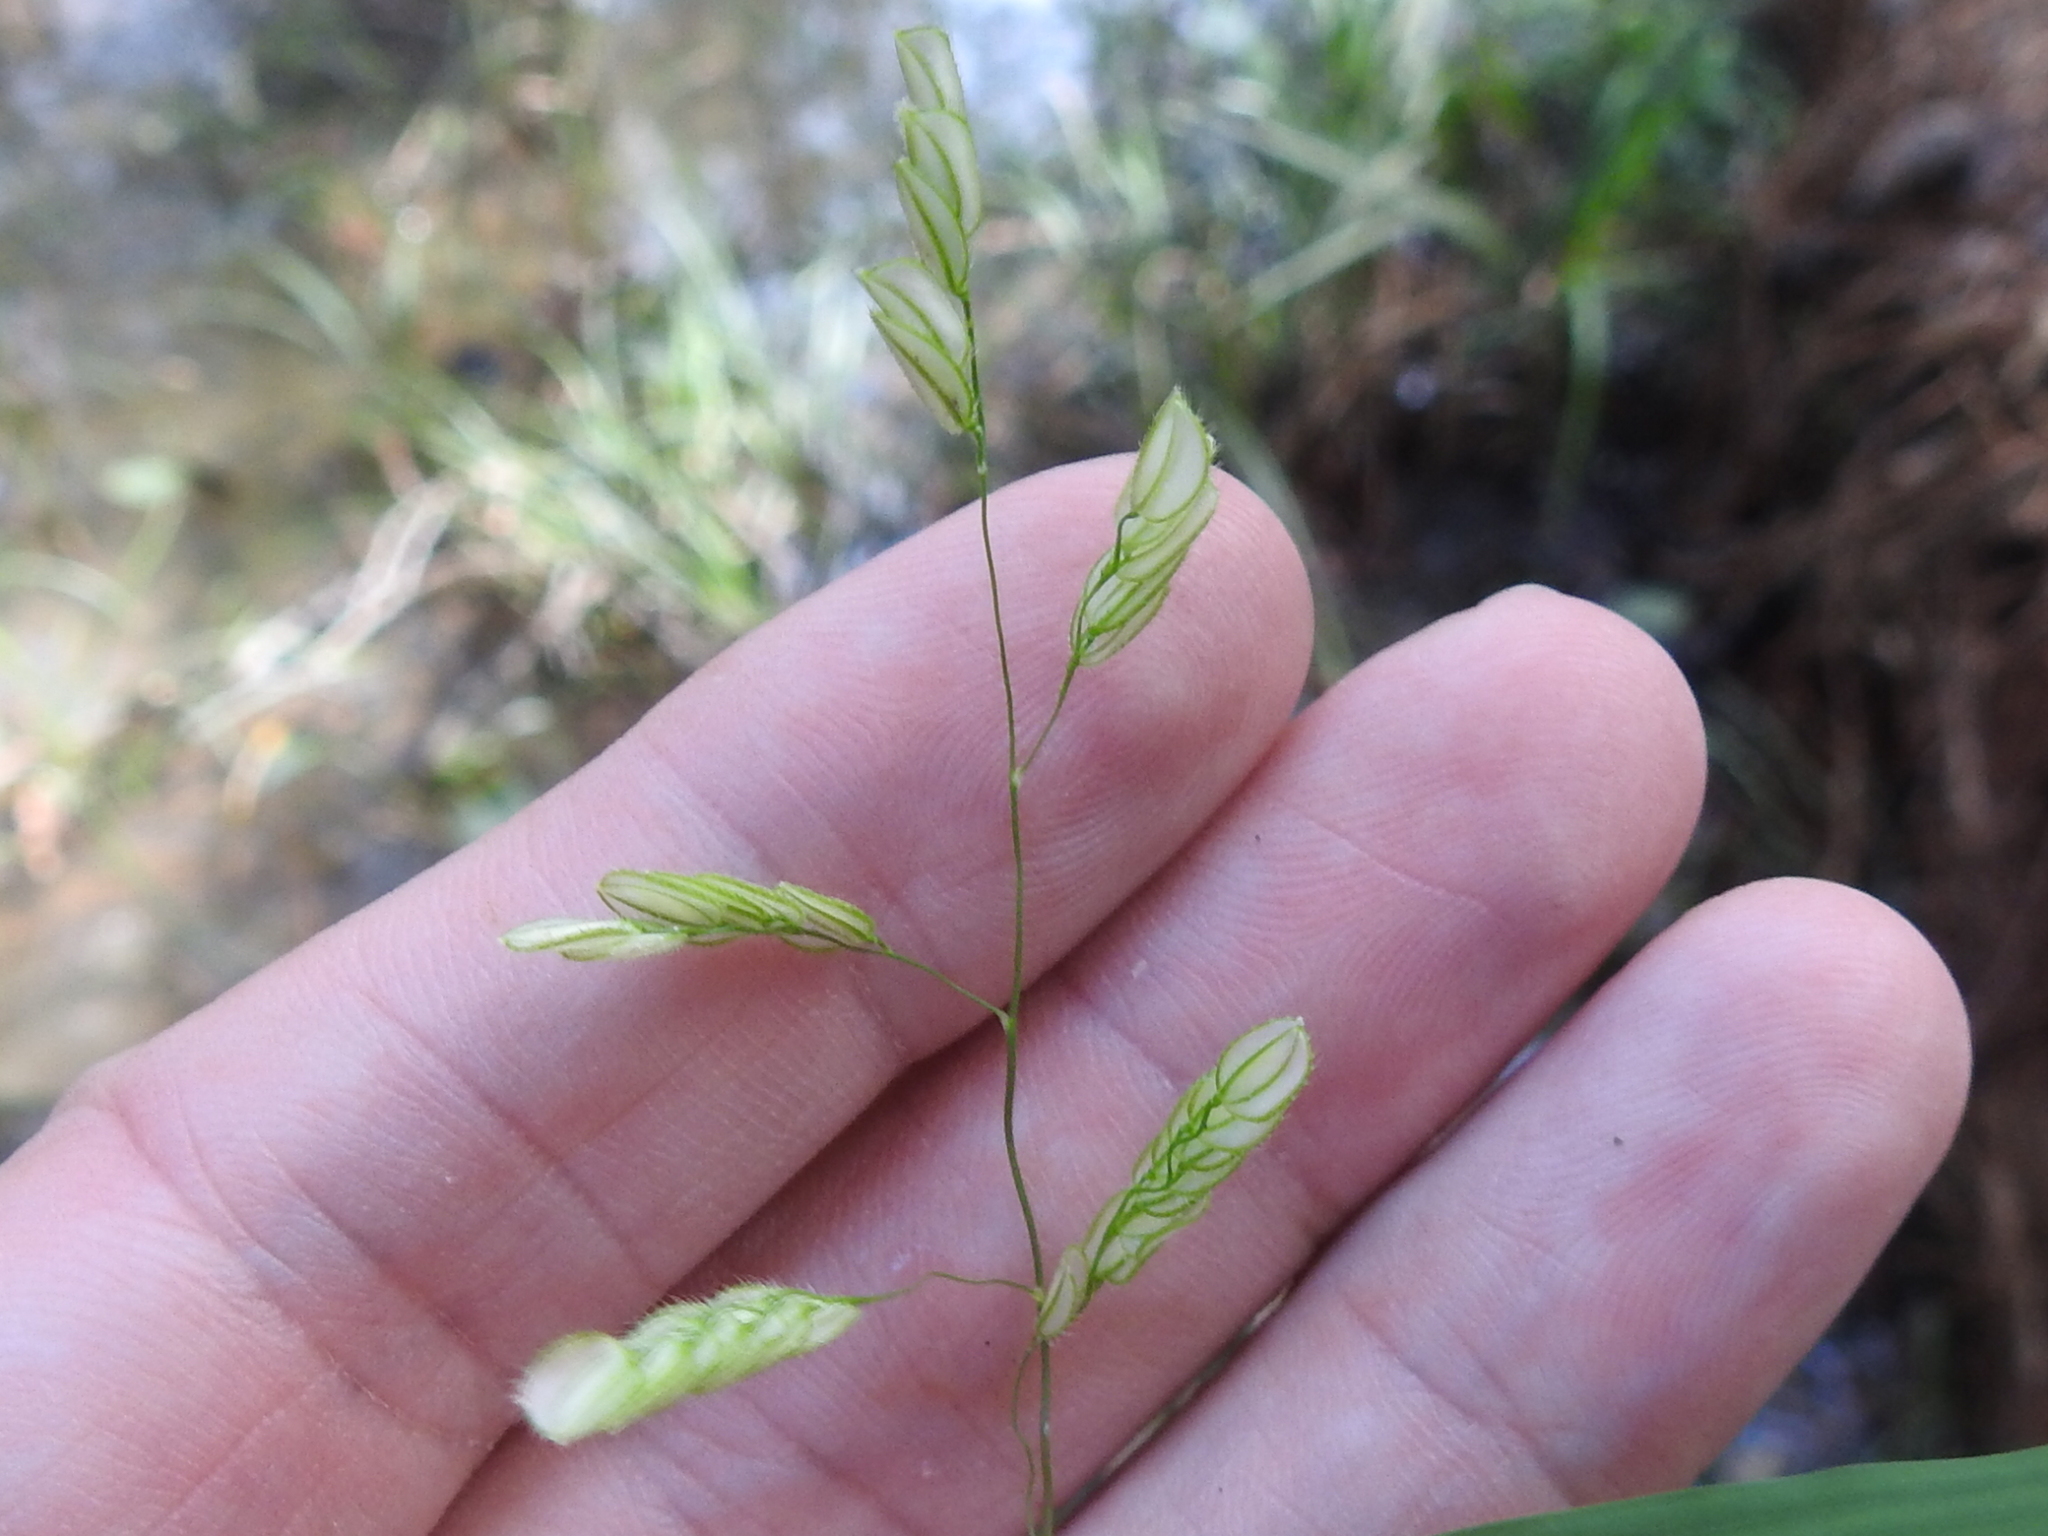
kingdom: Plantae
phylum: Tracheophyta
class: Liliopsida
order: Poales
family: Poaceae
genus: Leersia
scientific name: Leersia lenticularis
